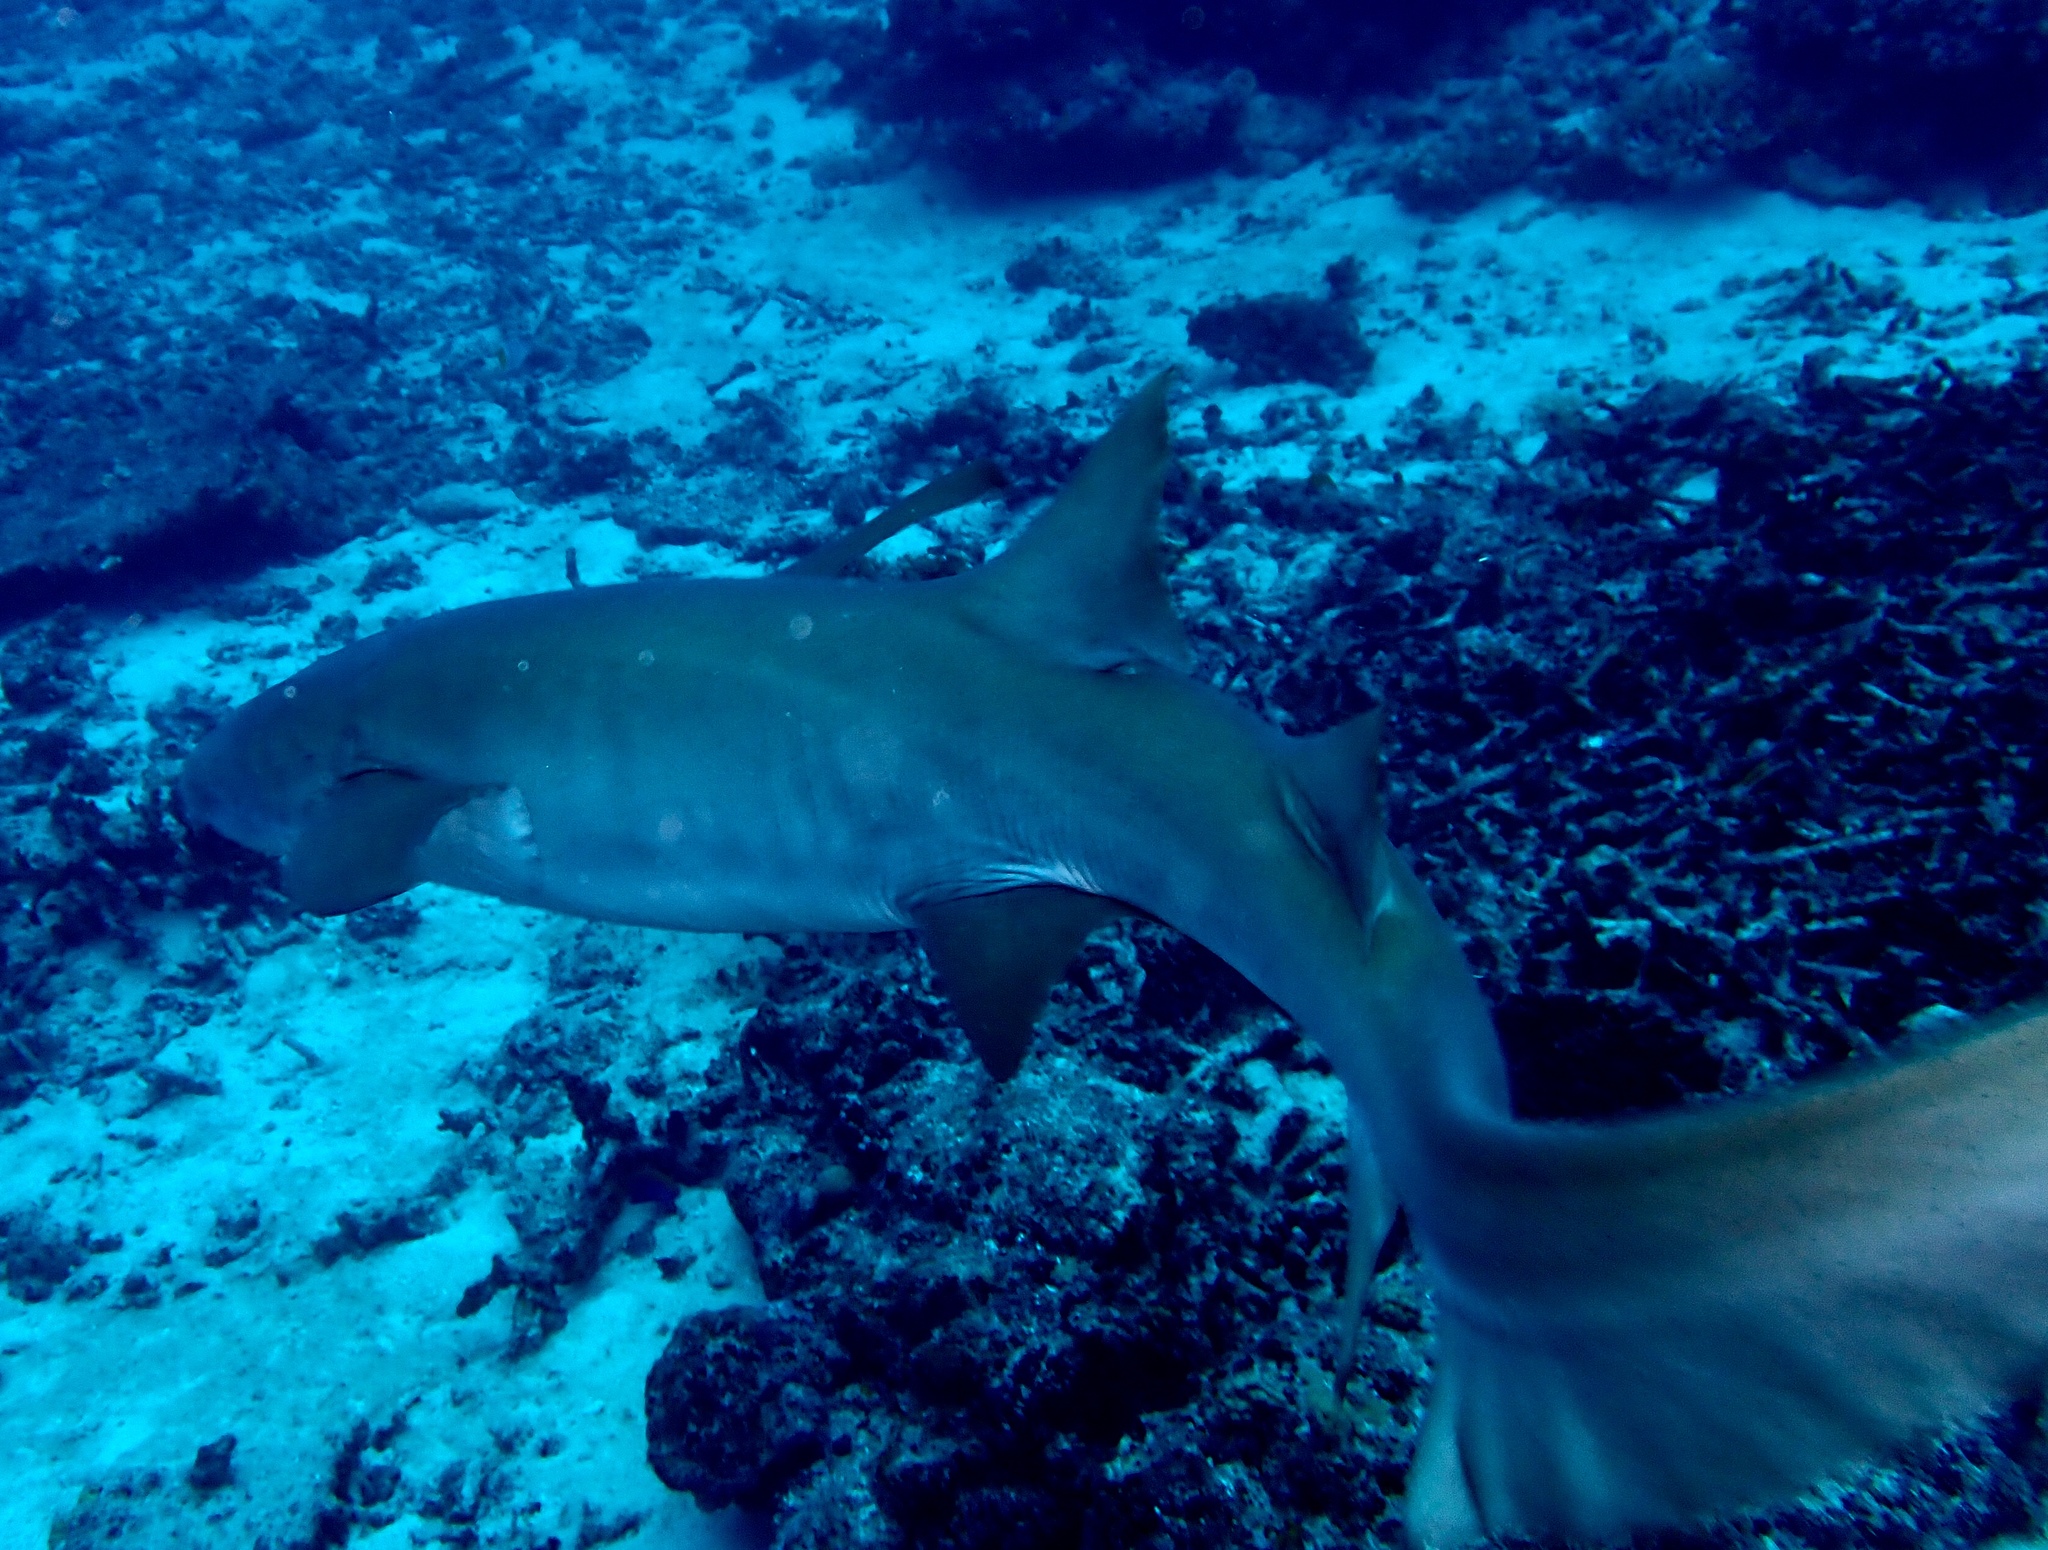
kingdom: Animalia
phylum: Chordata
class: Elasmobranchii
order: Orectolobiformes
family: Ginglymostomatidae
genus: Nebrius
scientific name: Nebrius ferrugineus
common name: Tawny nurse shark
